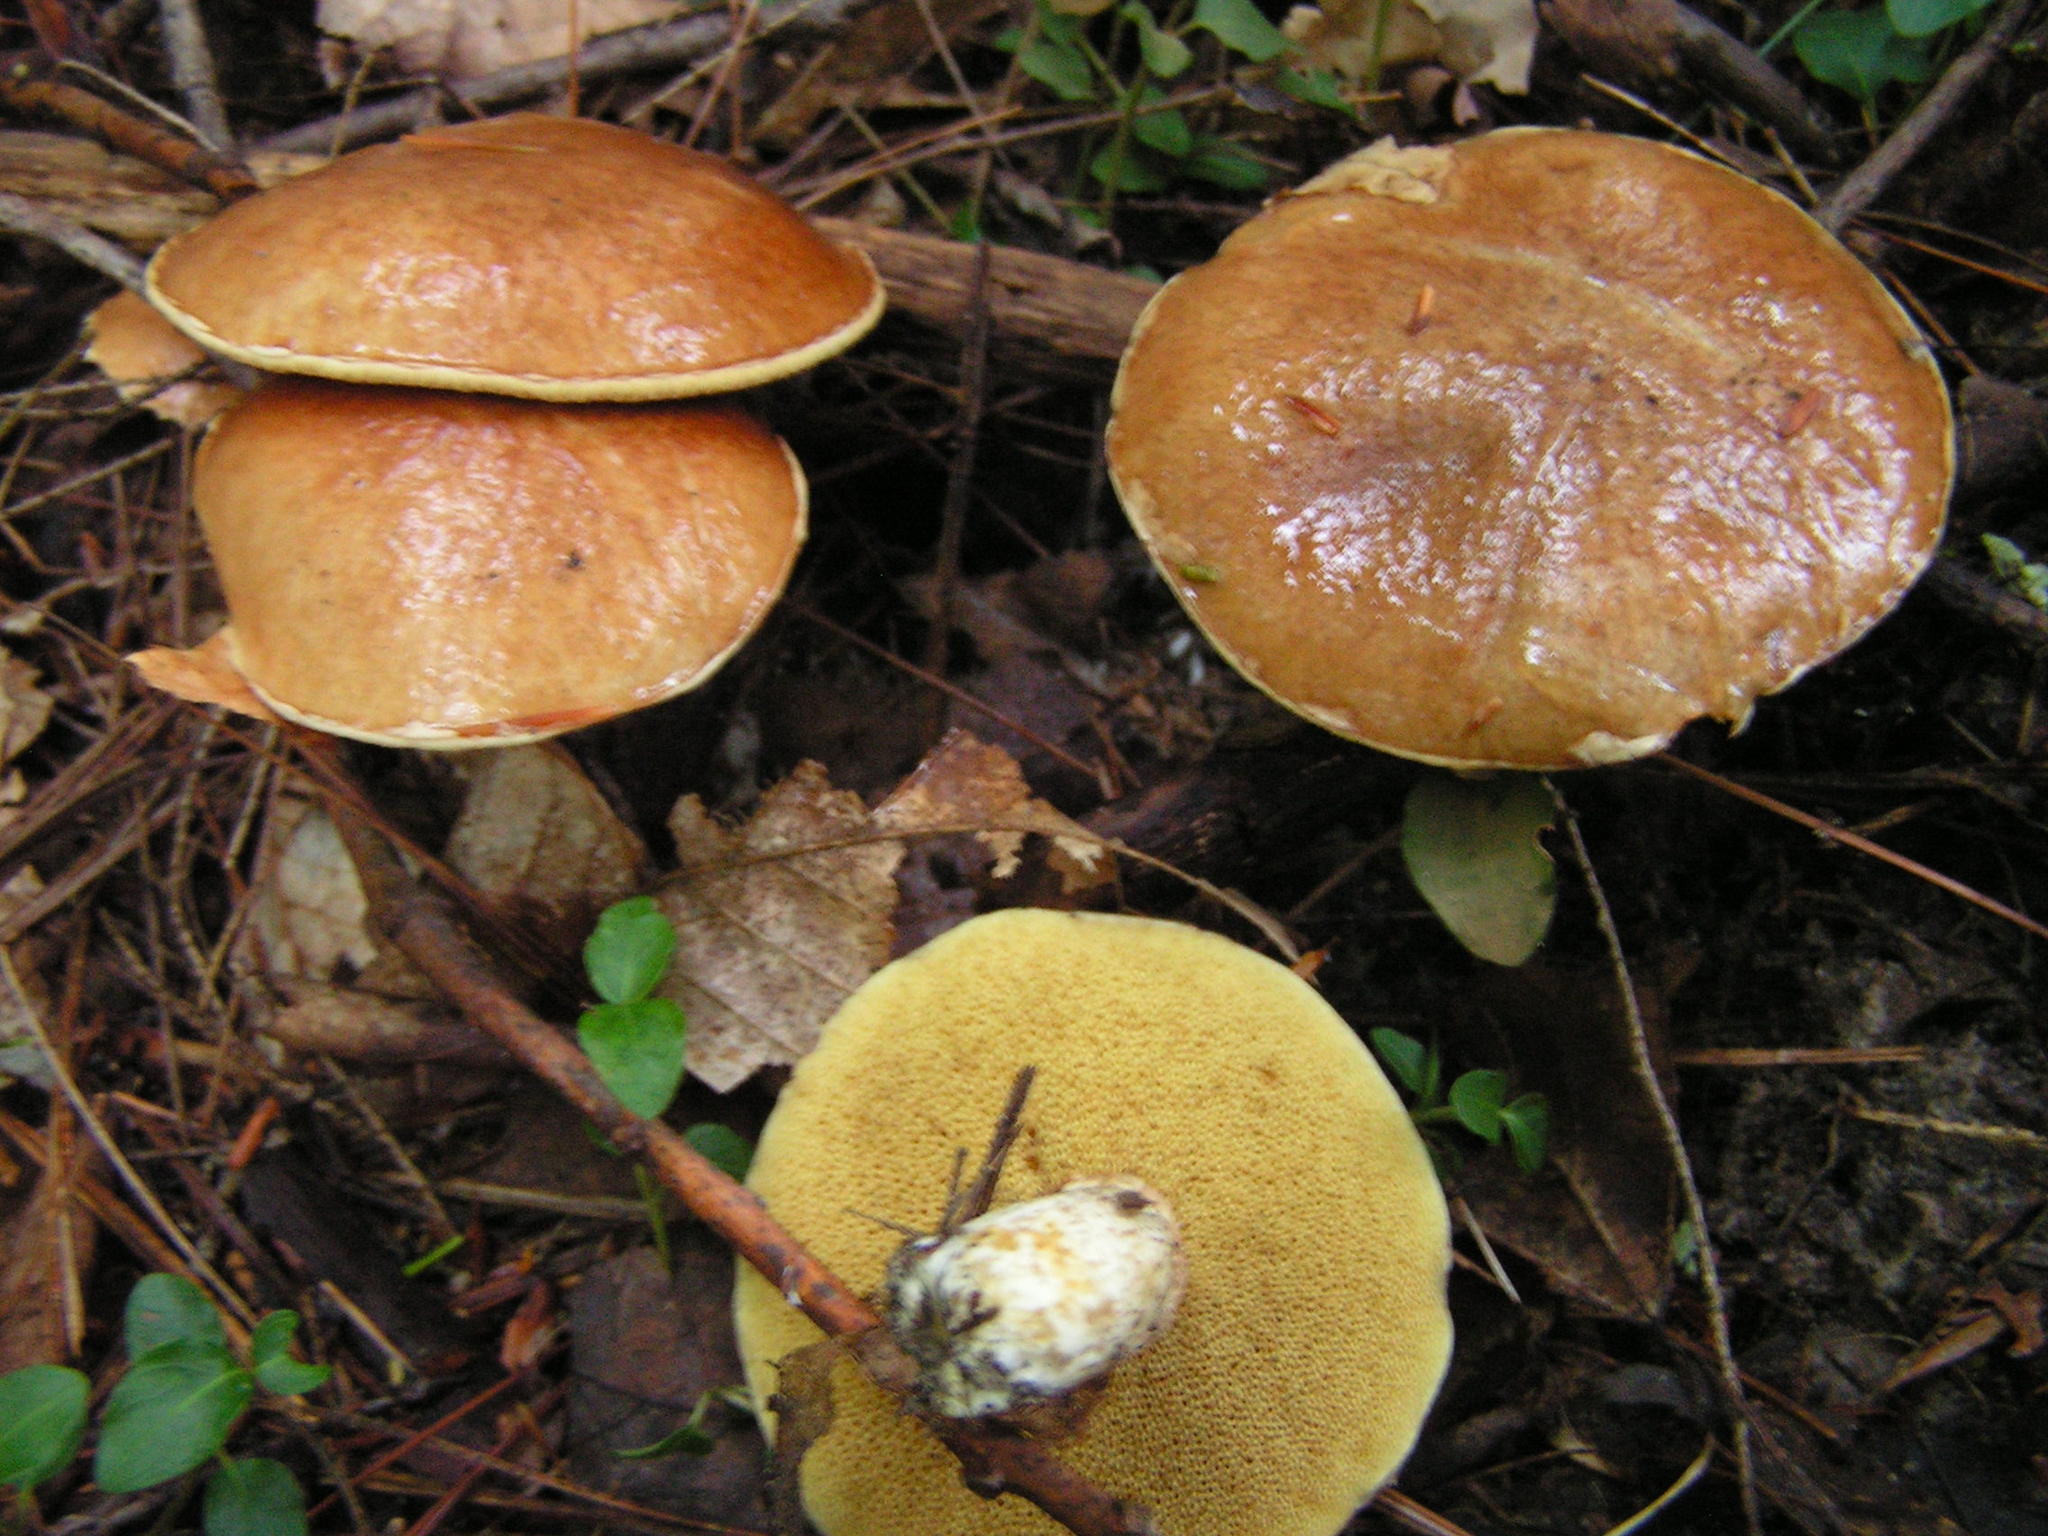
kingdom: Fungi
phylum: Basidiomycota
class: Agaricomycetes
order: Boletales
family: Suillaceae
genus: Suillus
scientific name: Suillus acidus
